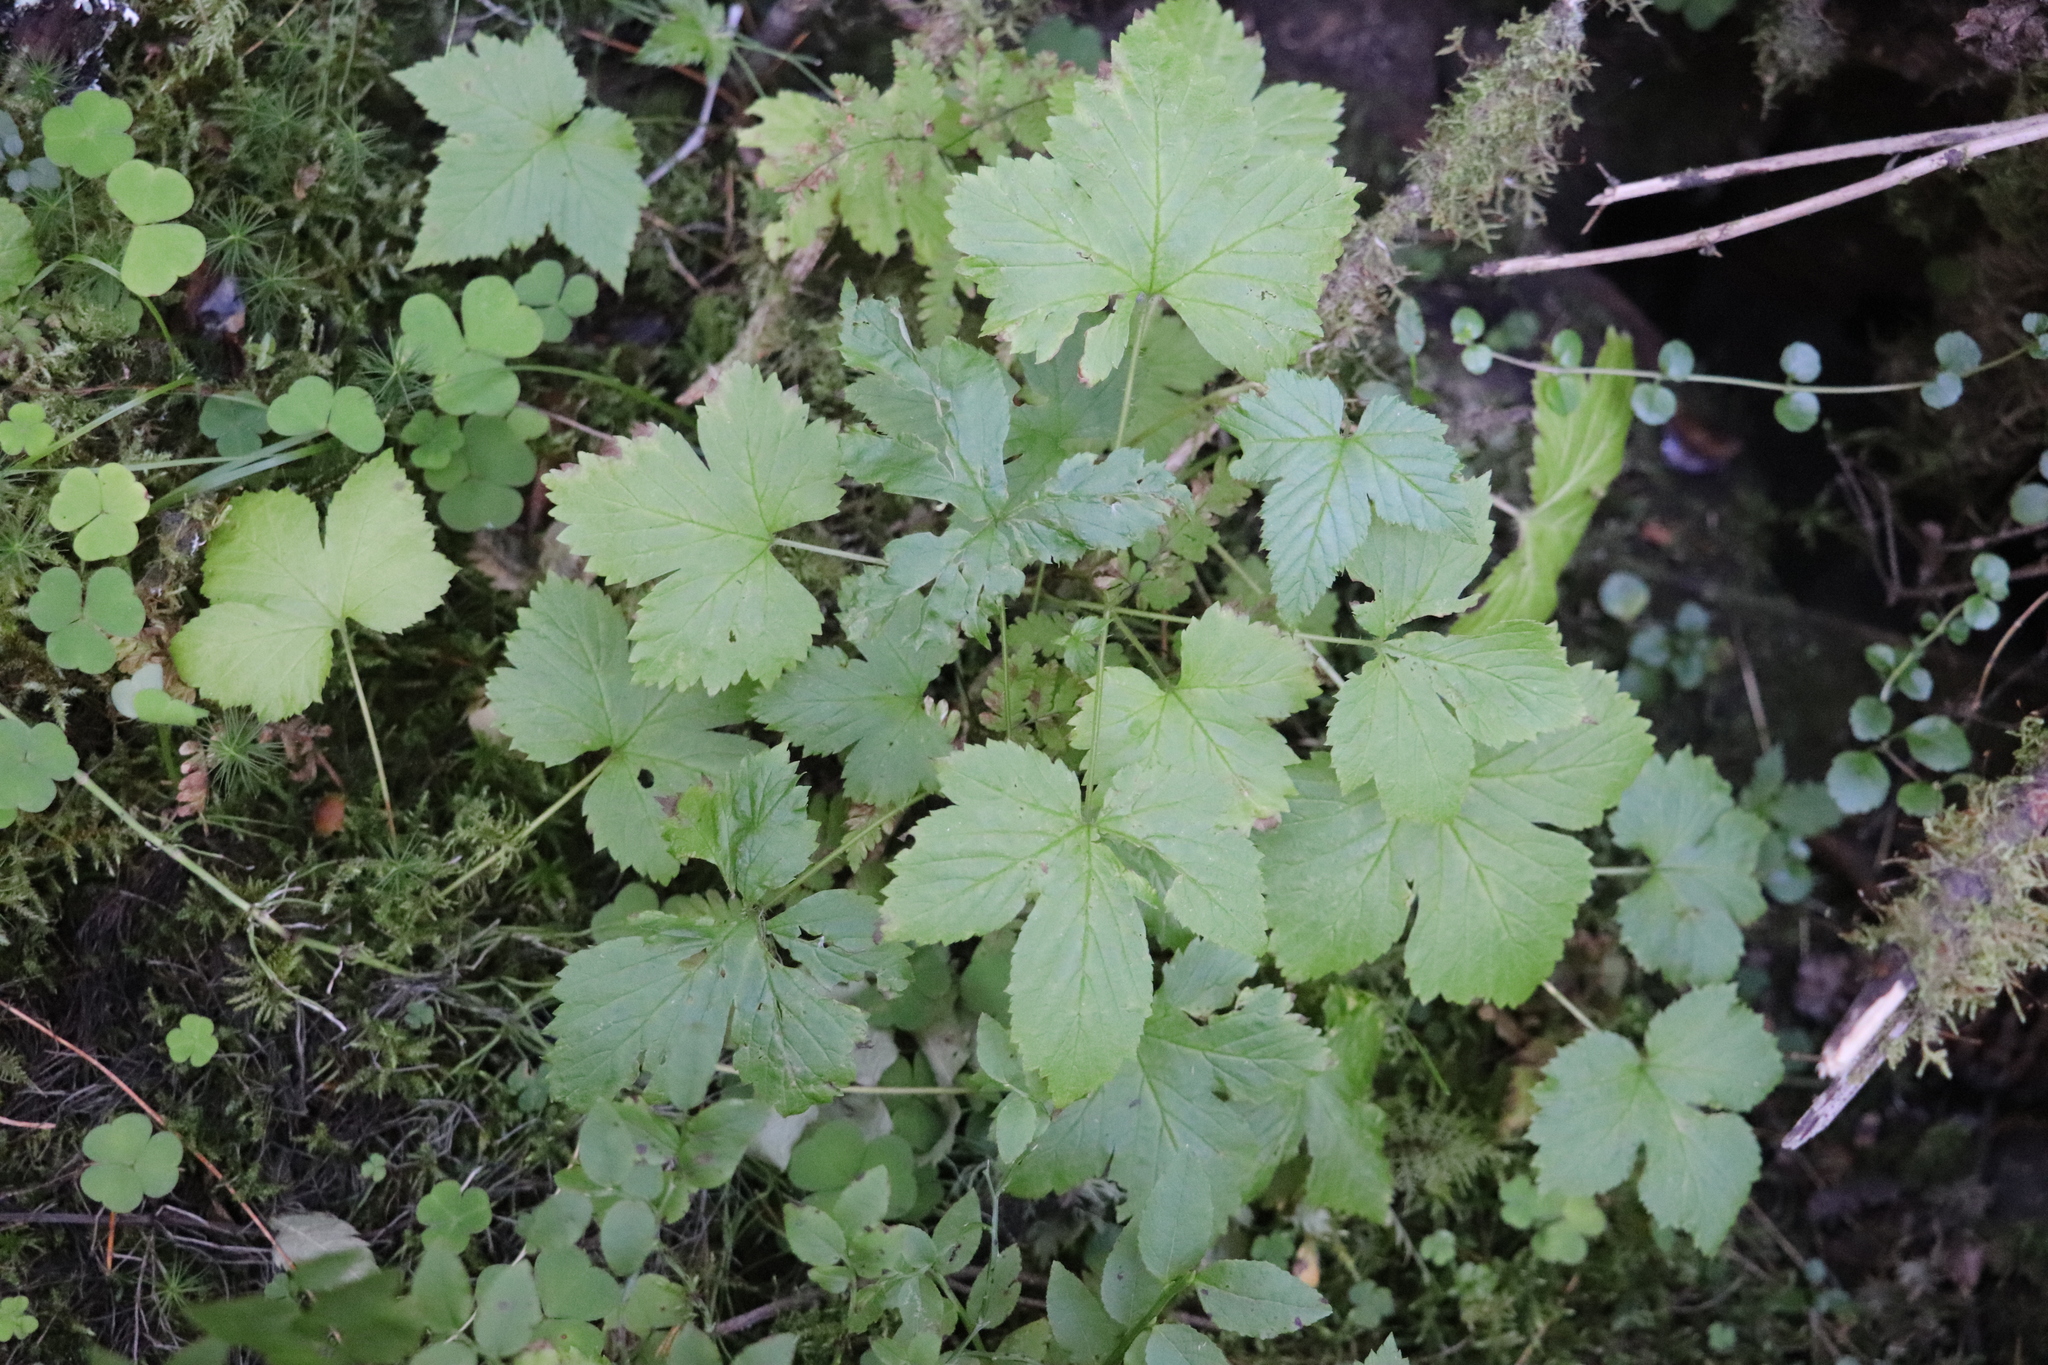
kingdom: Plantae
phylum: Tracheophyta
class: Magnoliopsida
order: Rosales
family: Rosaceae
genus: Rubus
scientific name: Rubus humulifolius
